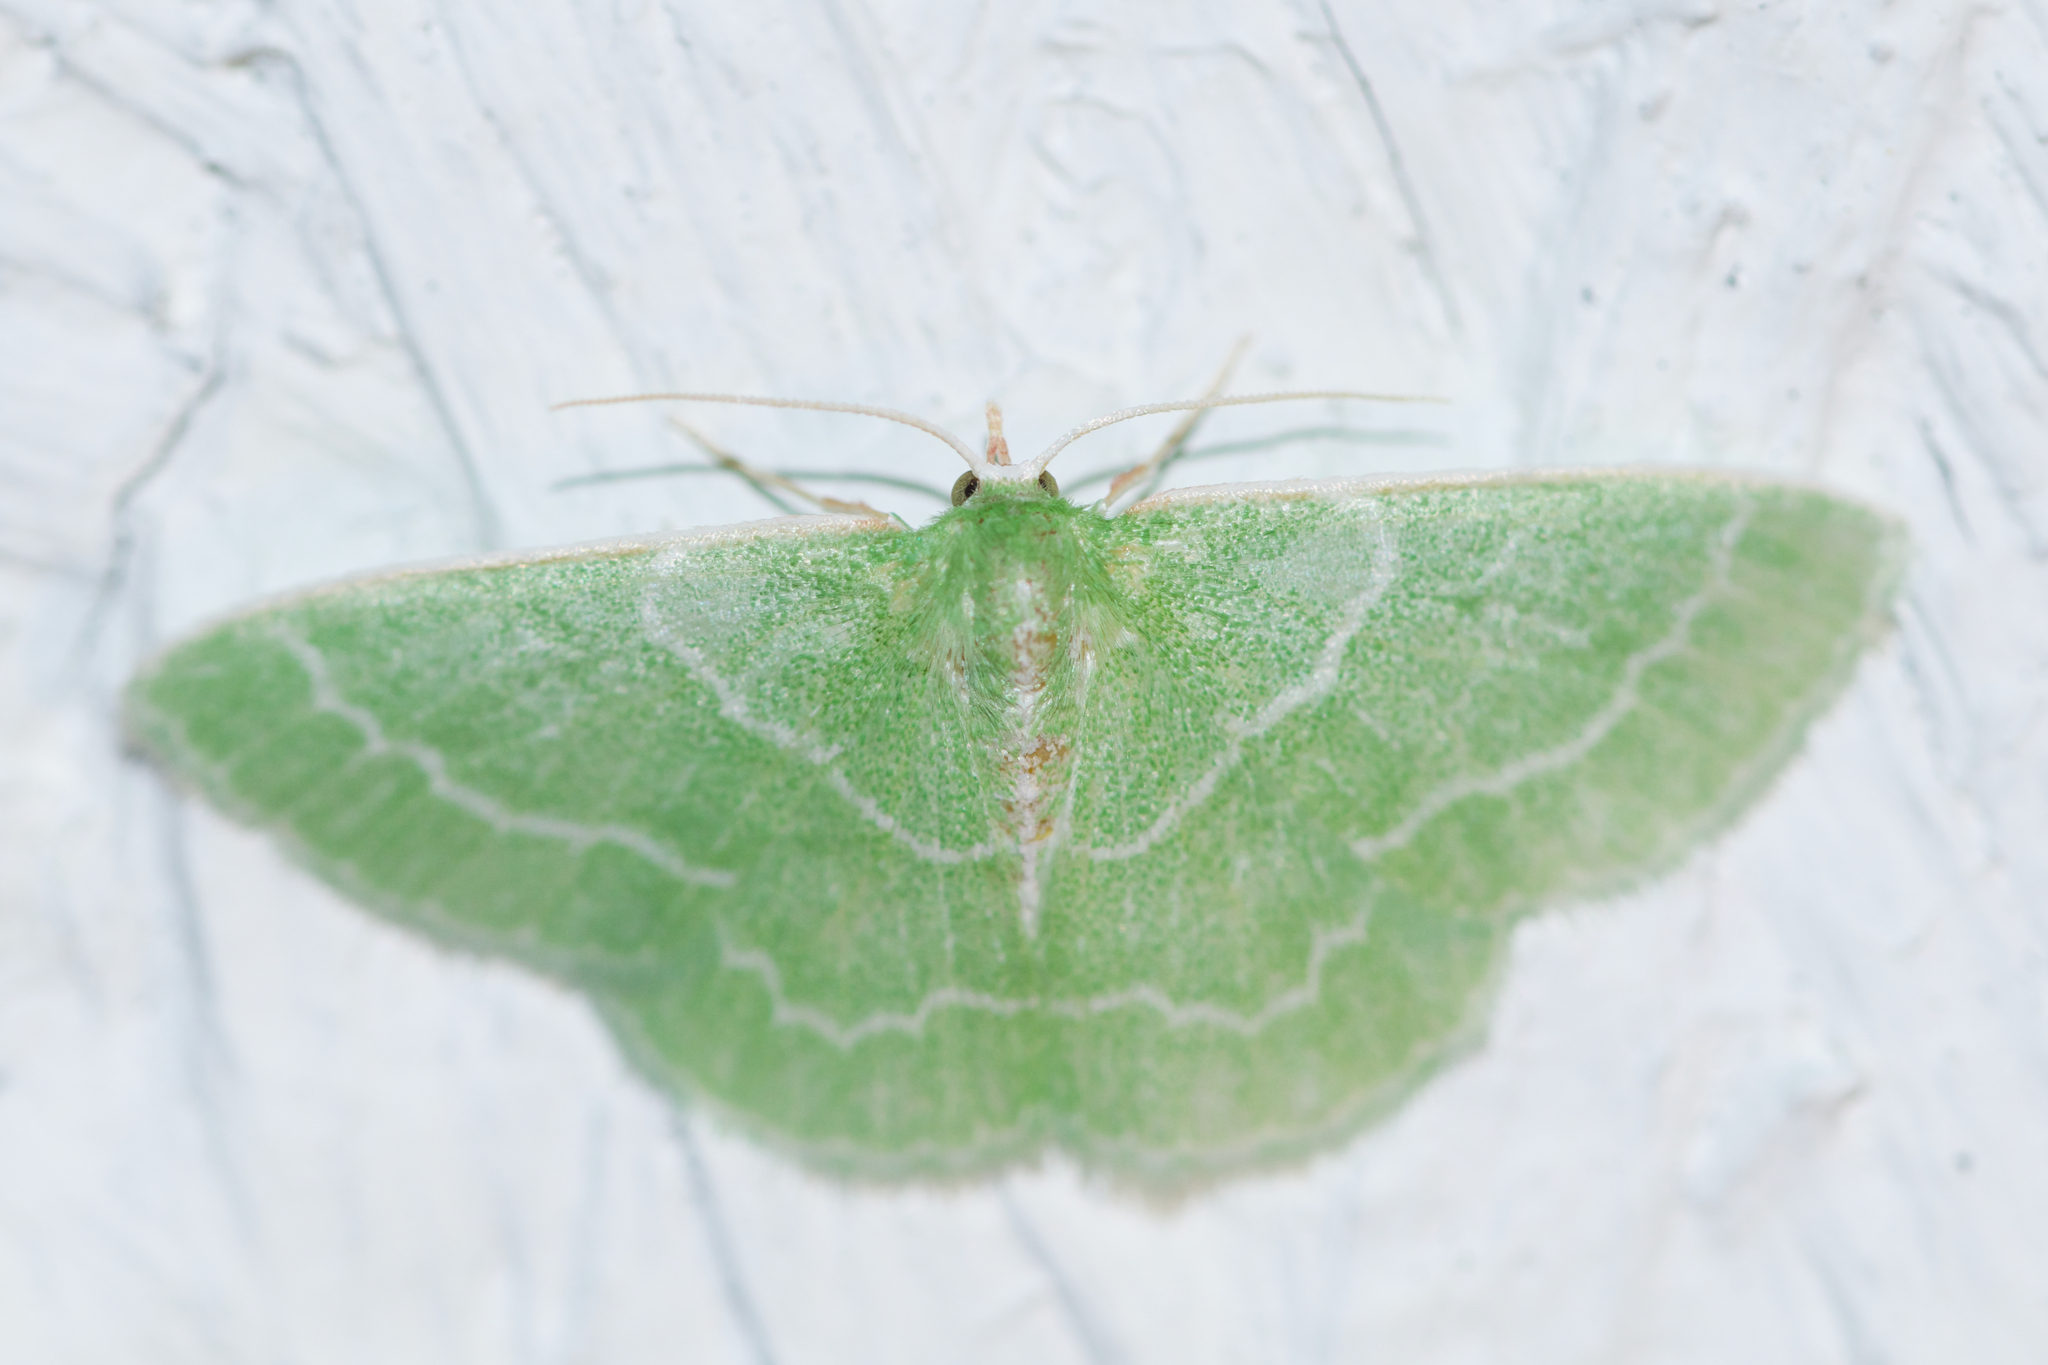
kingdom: Animalia
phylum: Arthropoda
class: Insecta
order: Lepidoptera
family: Geometridae
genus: Synchlora
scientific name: Synchlora aerata
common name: Wavy-lined emerald
